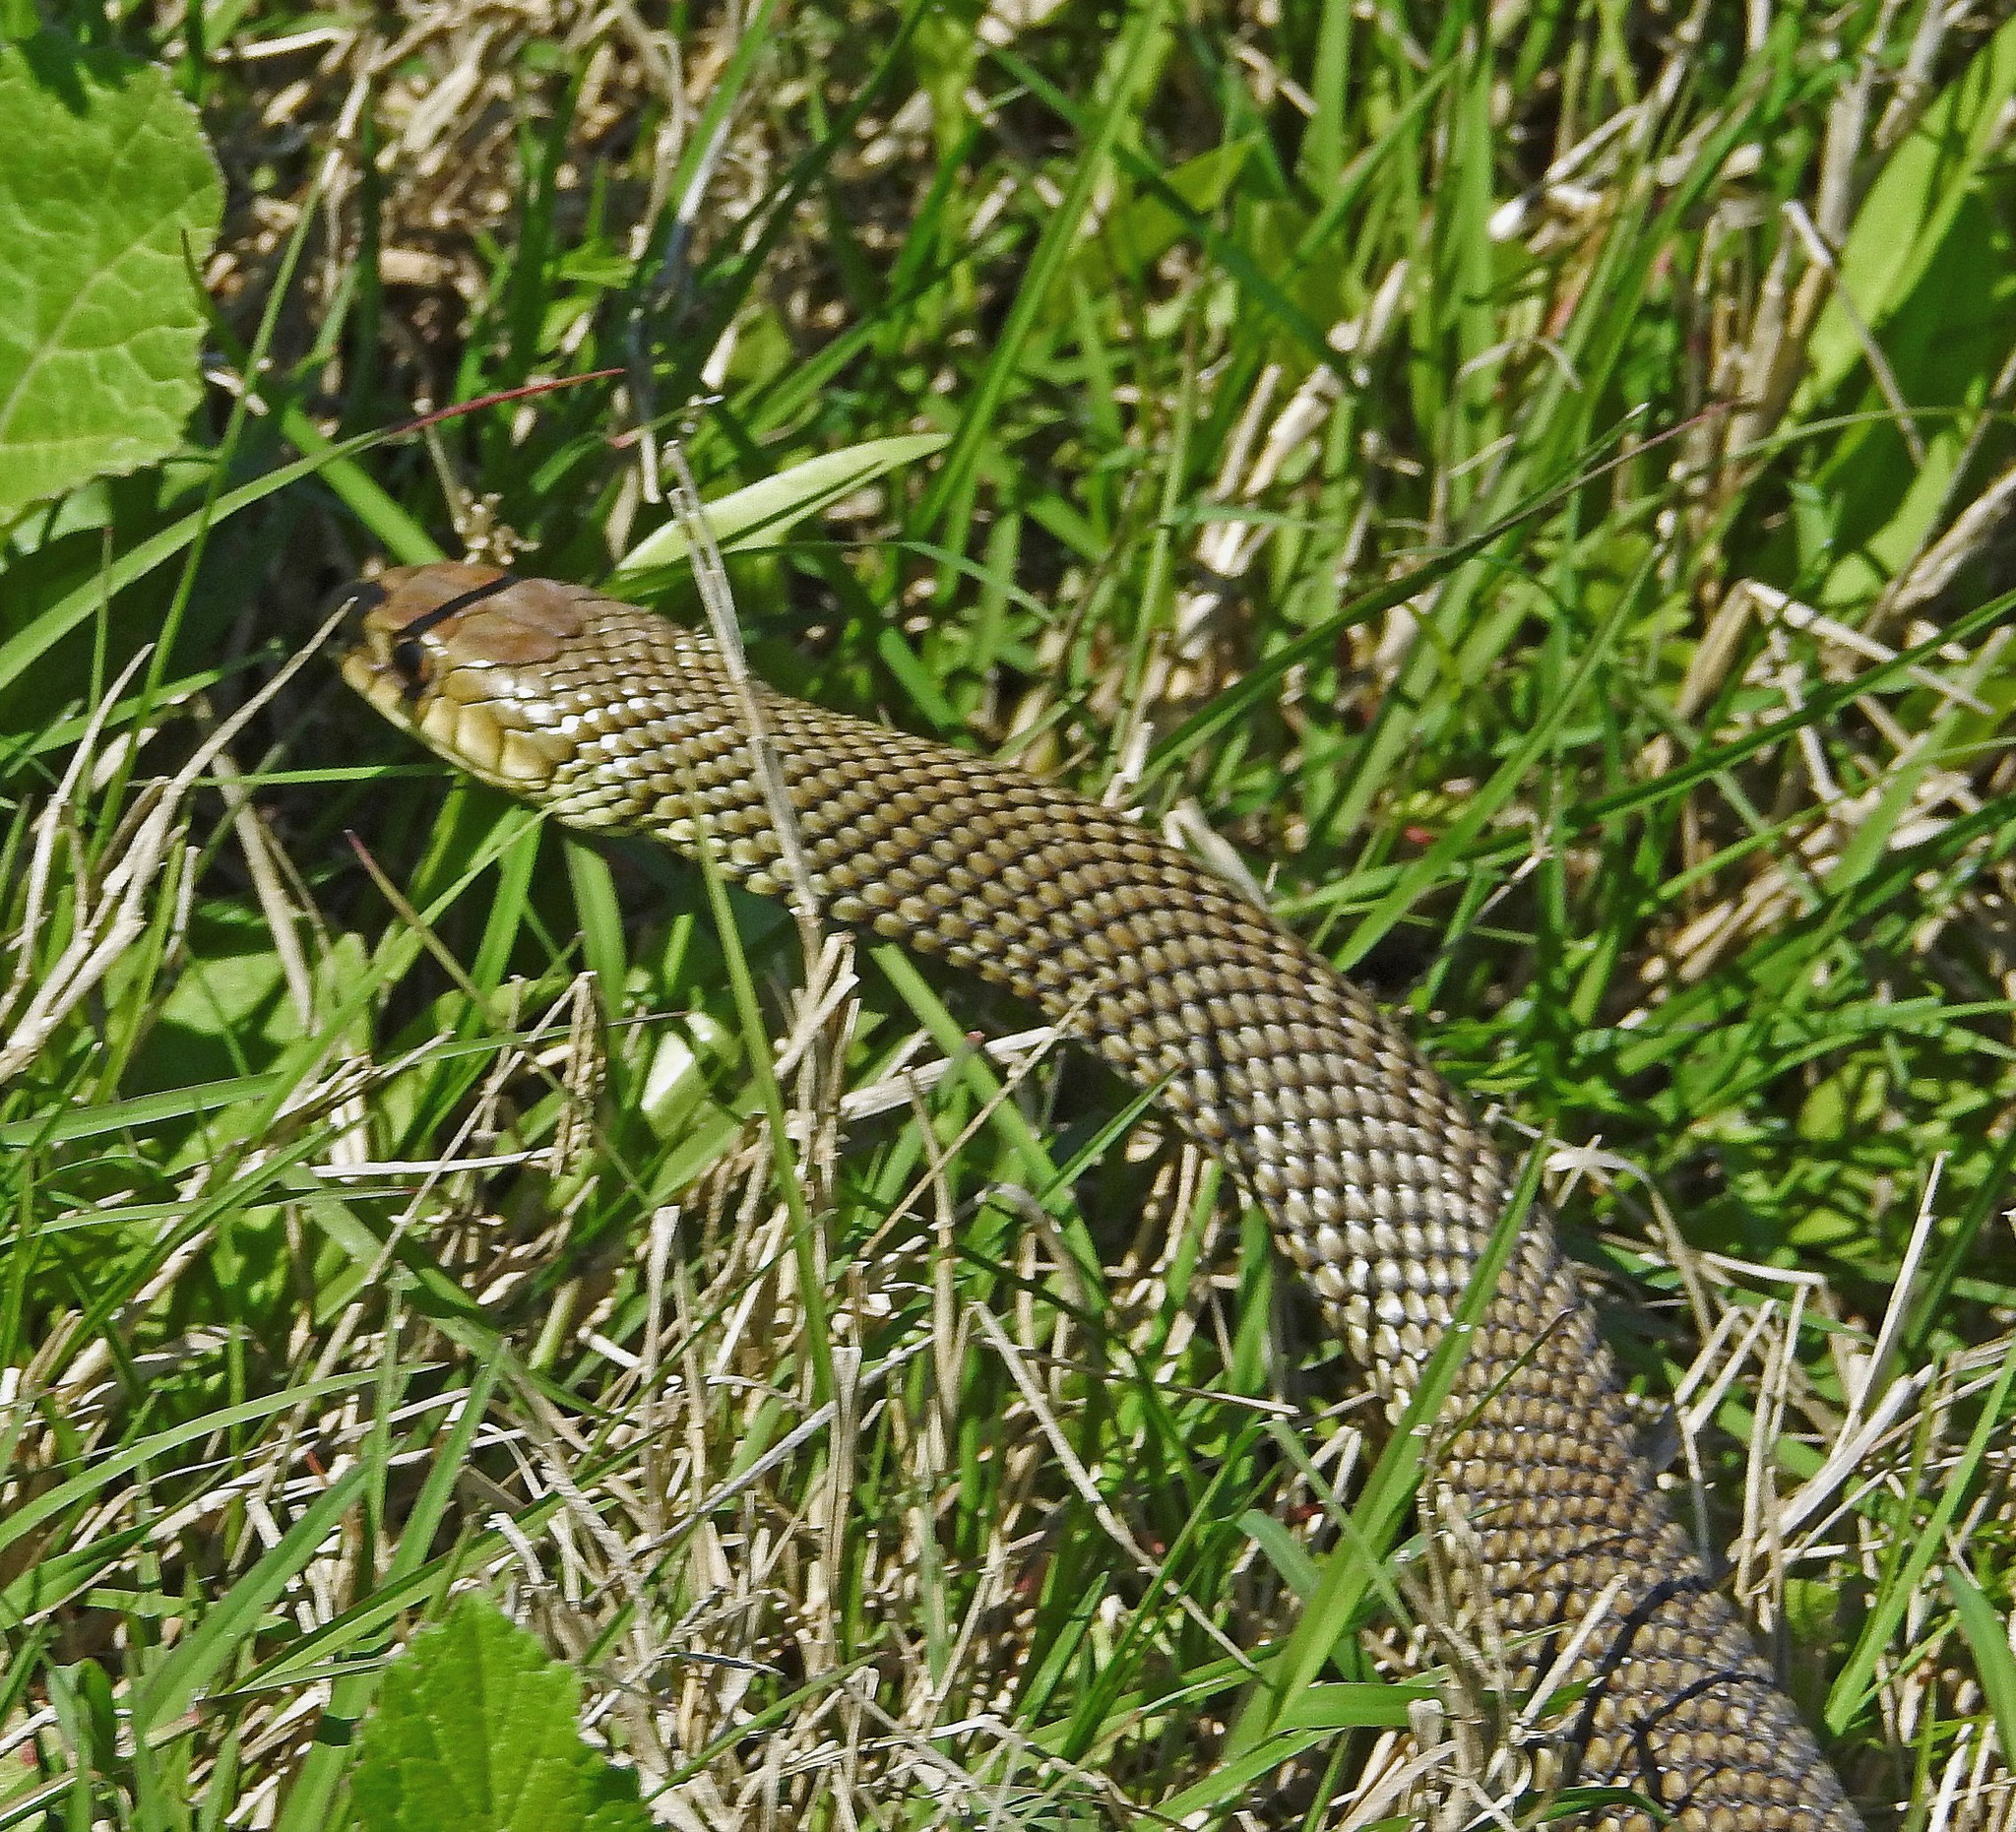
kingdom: Animalia
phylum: Chordata
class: Squamata
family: Colubridae
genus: Philodryas
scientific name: Philodryas patagoniensis
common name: Patagonia green racer
